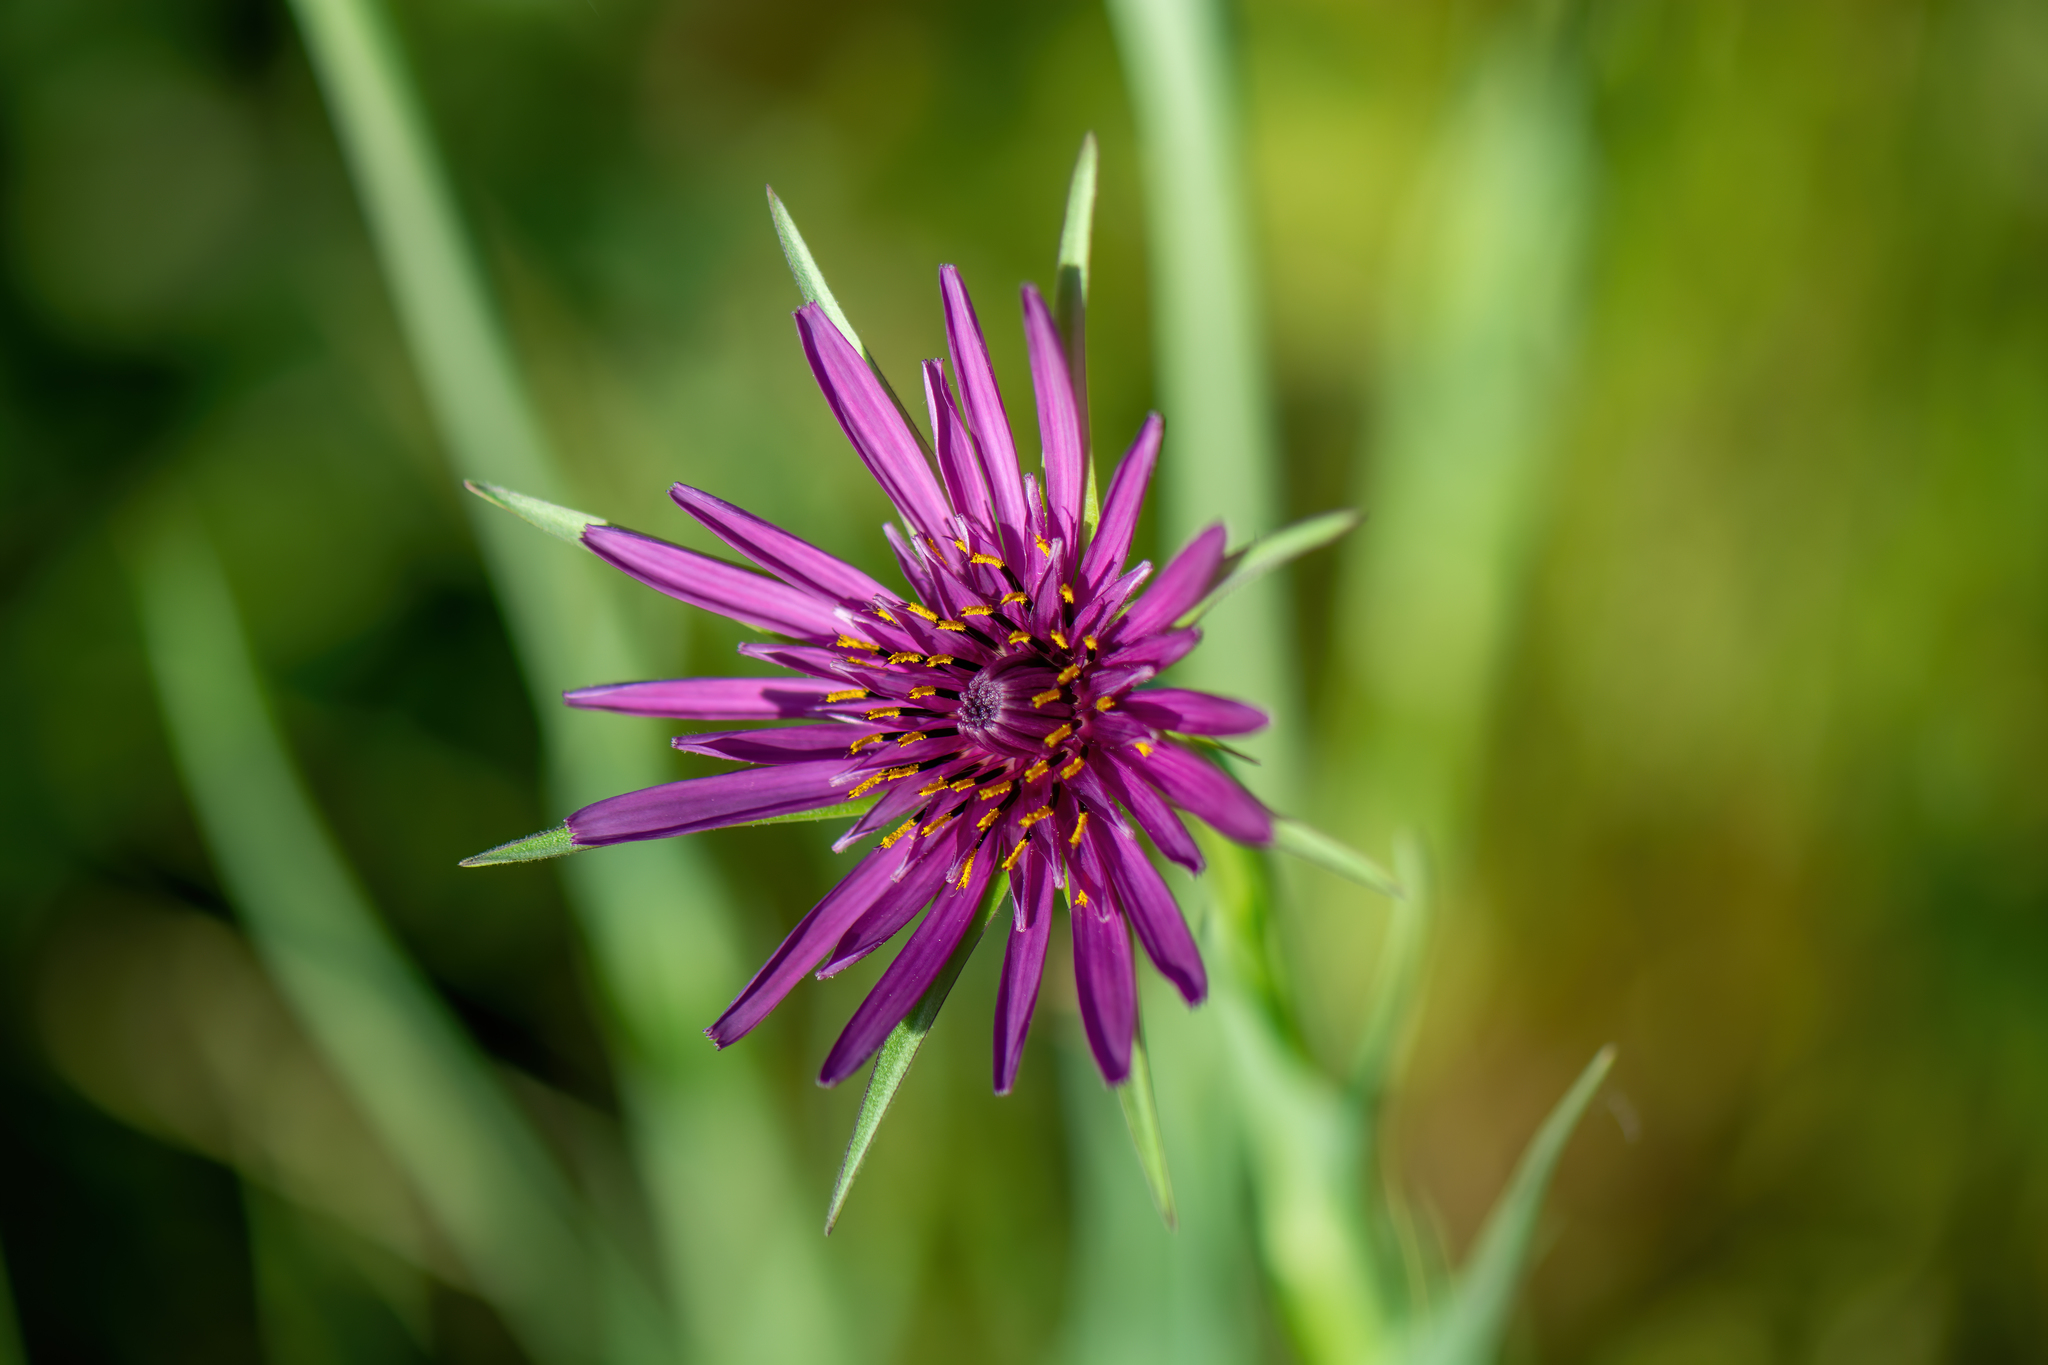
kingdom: Plantae
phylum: Tracheophyta
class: Magnoliopsida
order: Asterales
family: Asteraceae
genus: Tragopogon
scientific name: Tragopogon porrifolius
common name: Salsify
